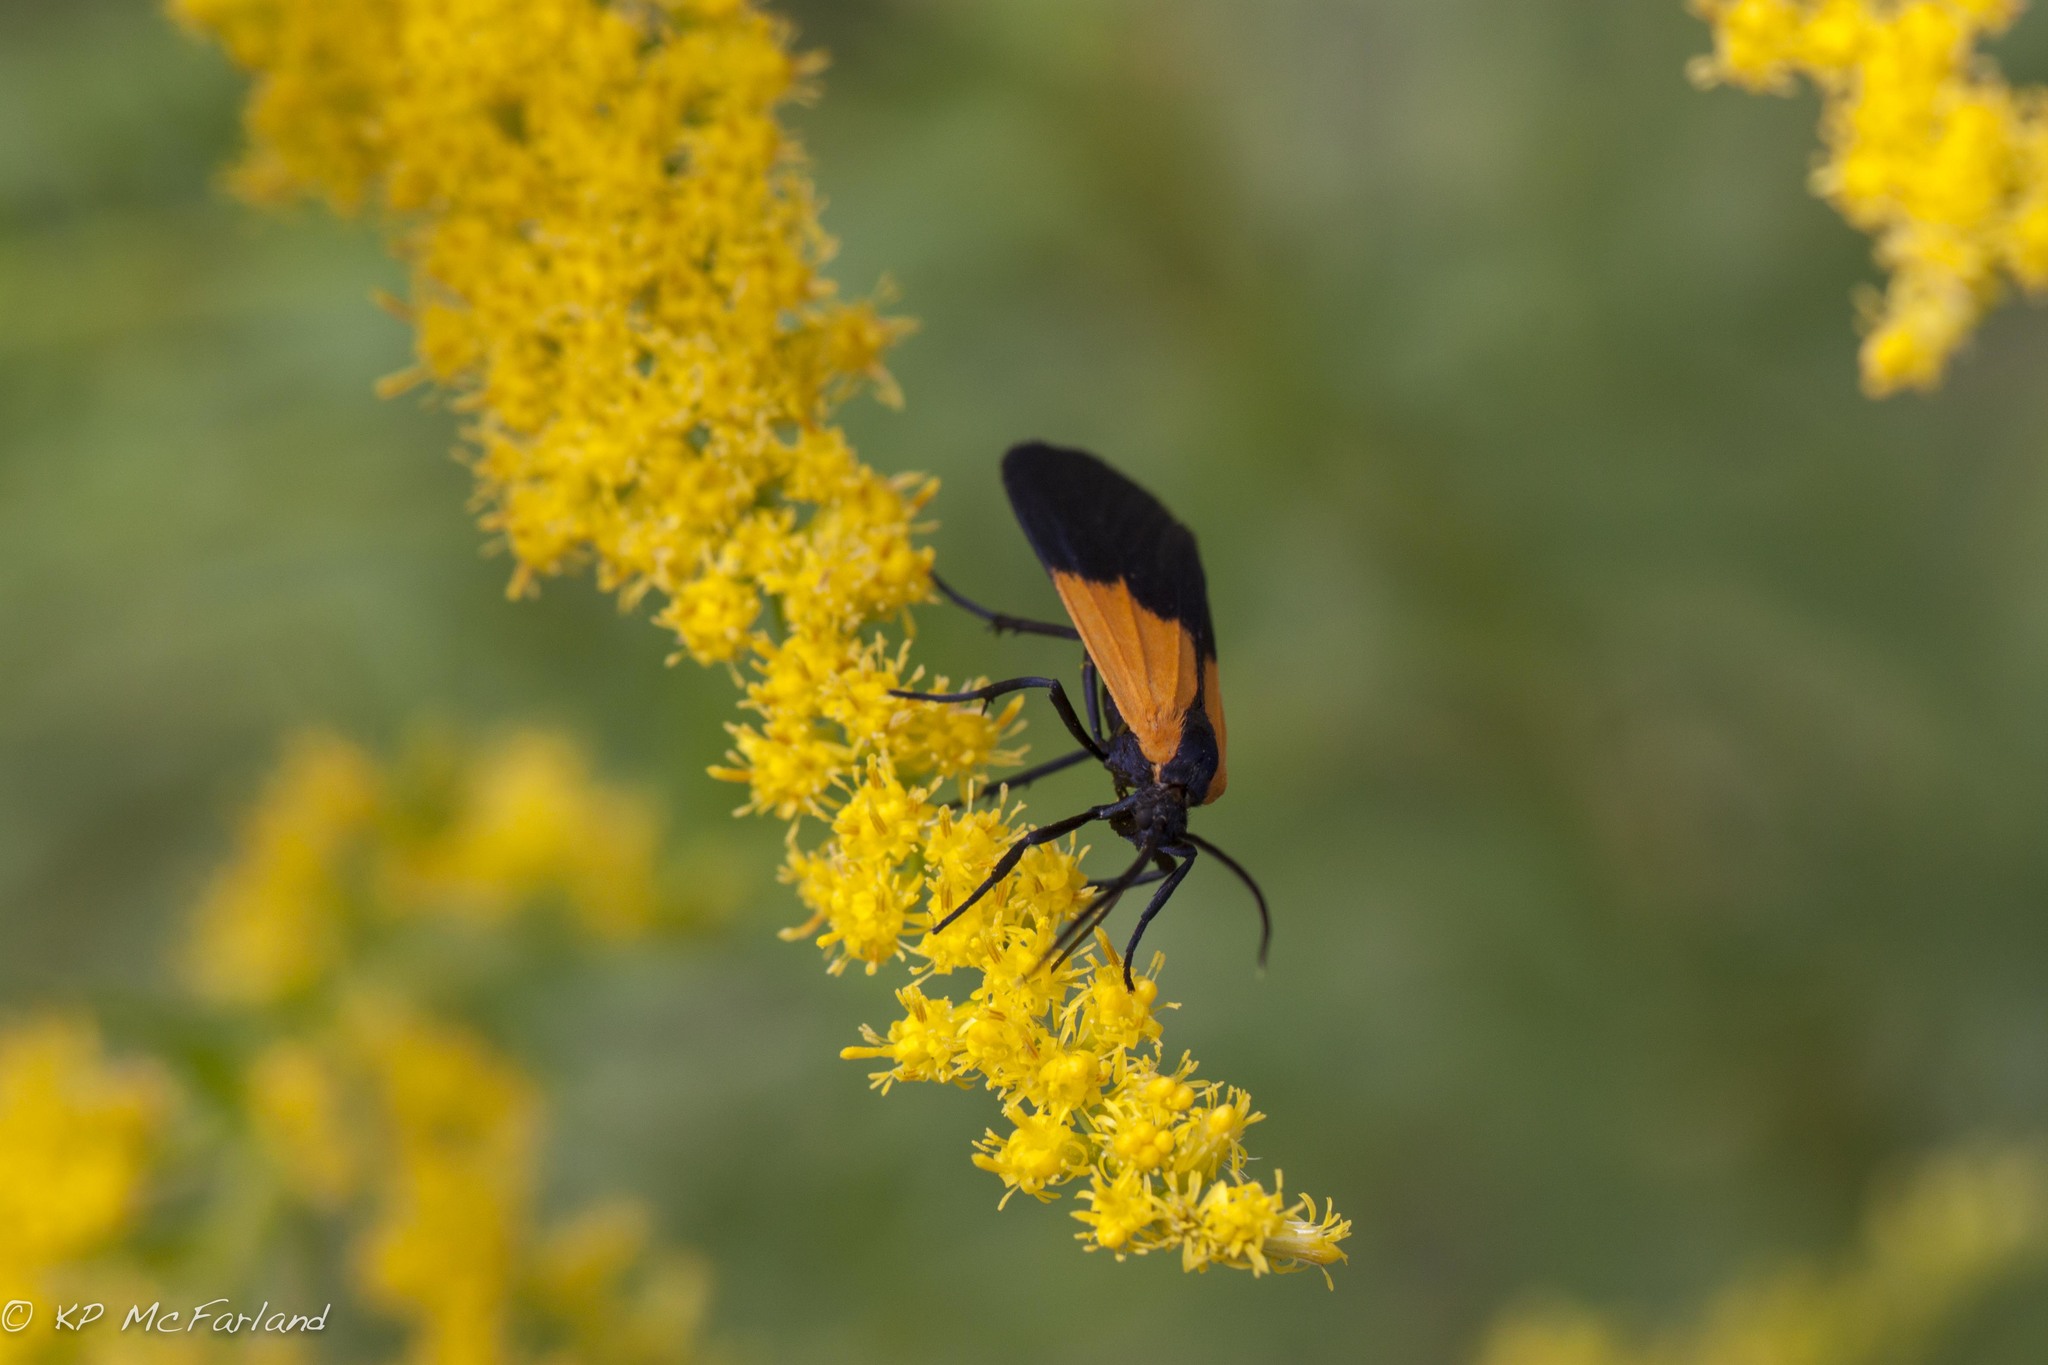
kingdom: Animalia
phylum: Arthropoda
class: Insecta
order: Lepidoptera
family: Erebidae
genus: Lycomorpha
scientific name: Lycomorpha pholus
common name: Black-and-yellow lichen moth
